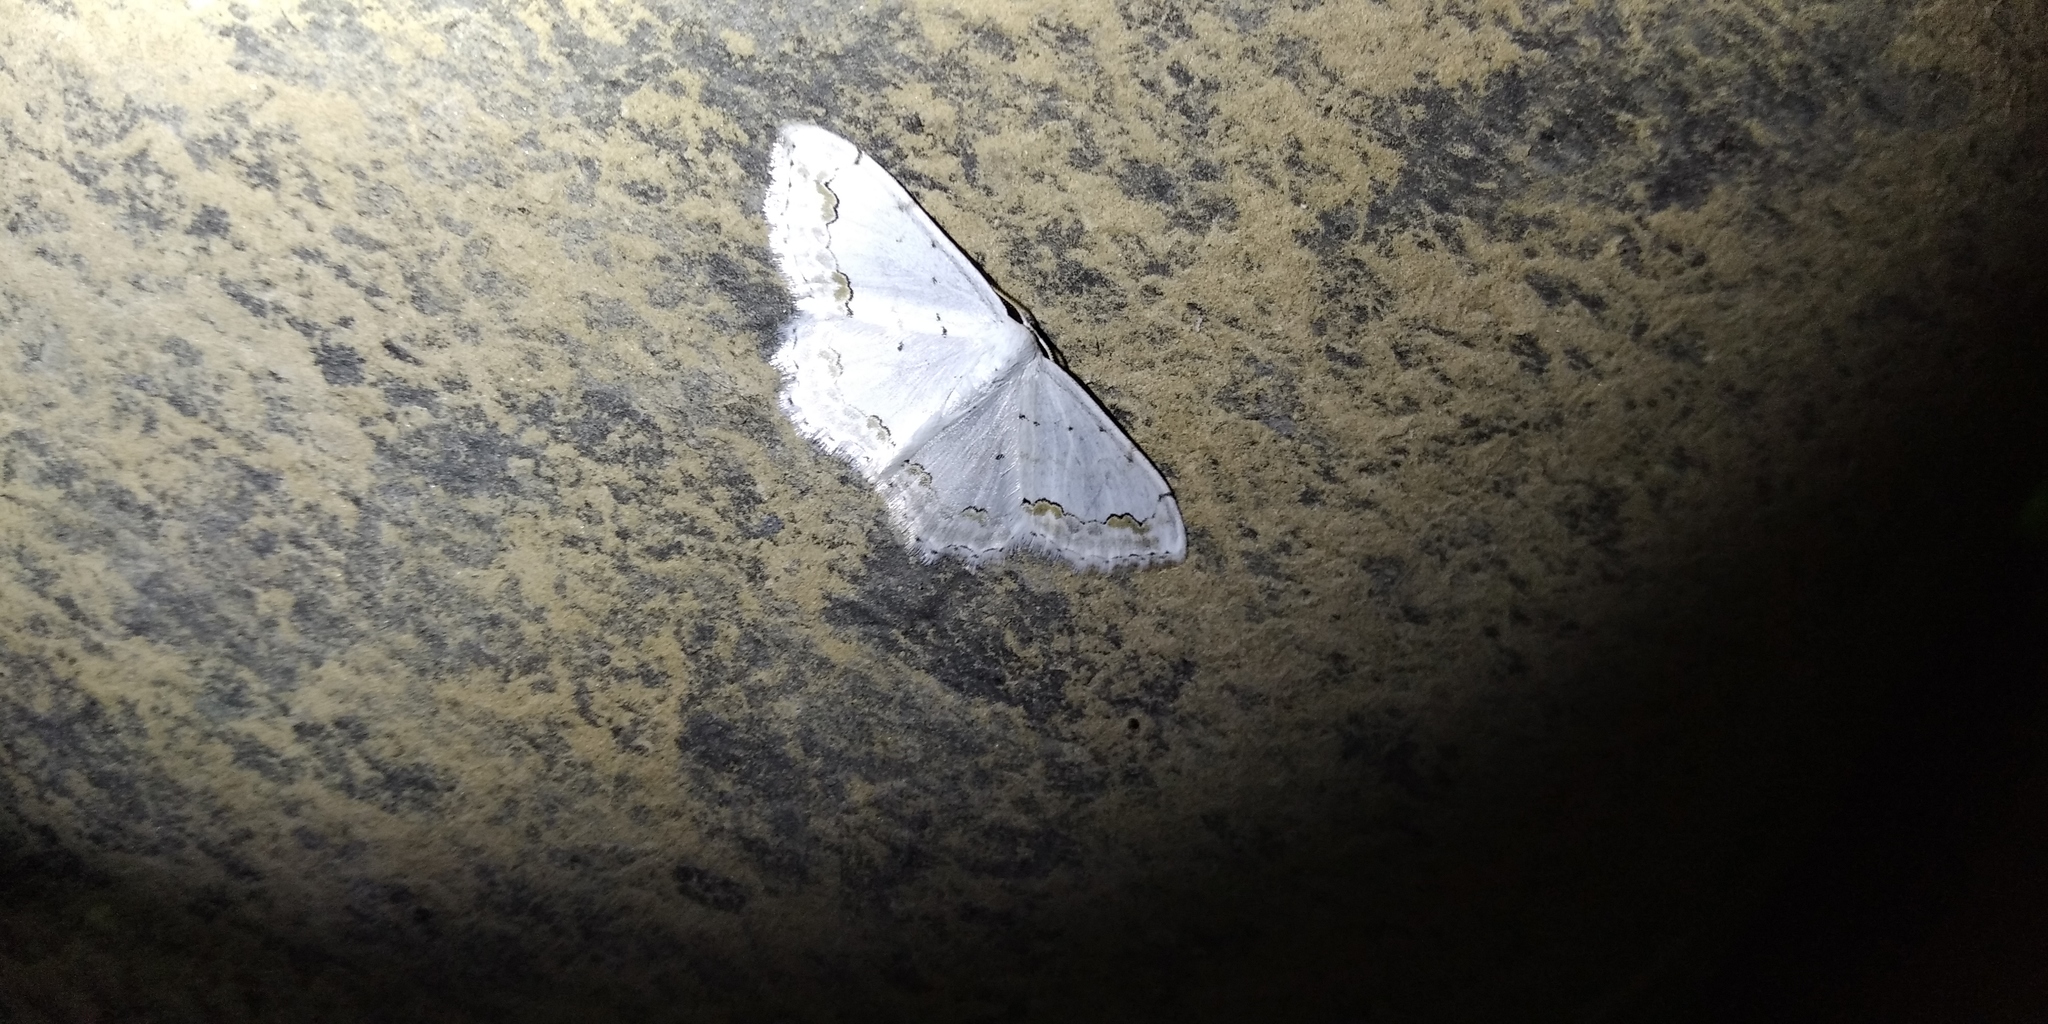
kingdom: Animalia
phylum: Arthropoda
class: Insecta
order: Lepidoptera
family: Geometridae
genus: Scopula
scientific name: Scopula ornata
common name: Lace border
